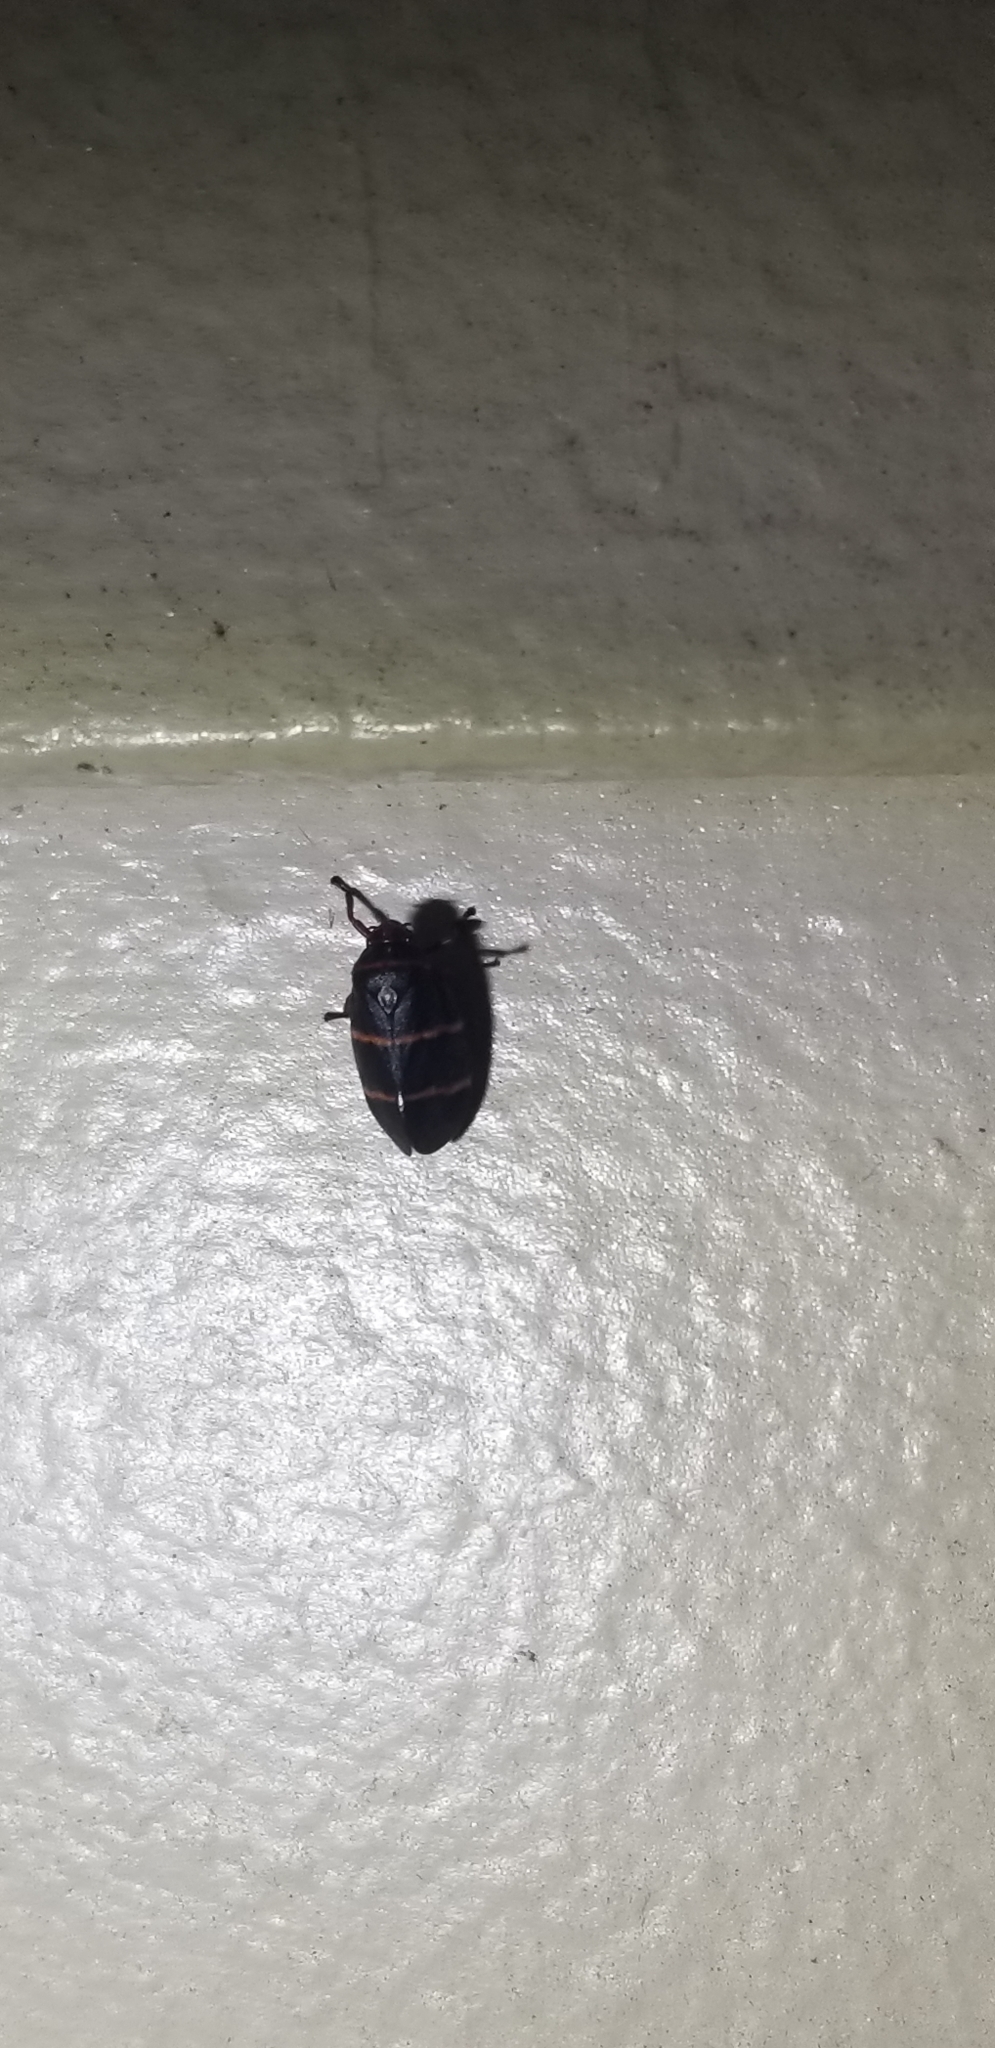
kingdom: Animalia
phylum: Arthropoda
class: Insecta
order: Hemiptera
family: Cercopidae
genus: Prosapia
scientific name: Prosapia bicincta
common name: Twolined spittlebug
